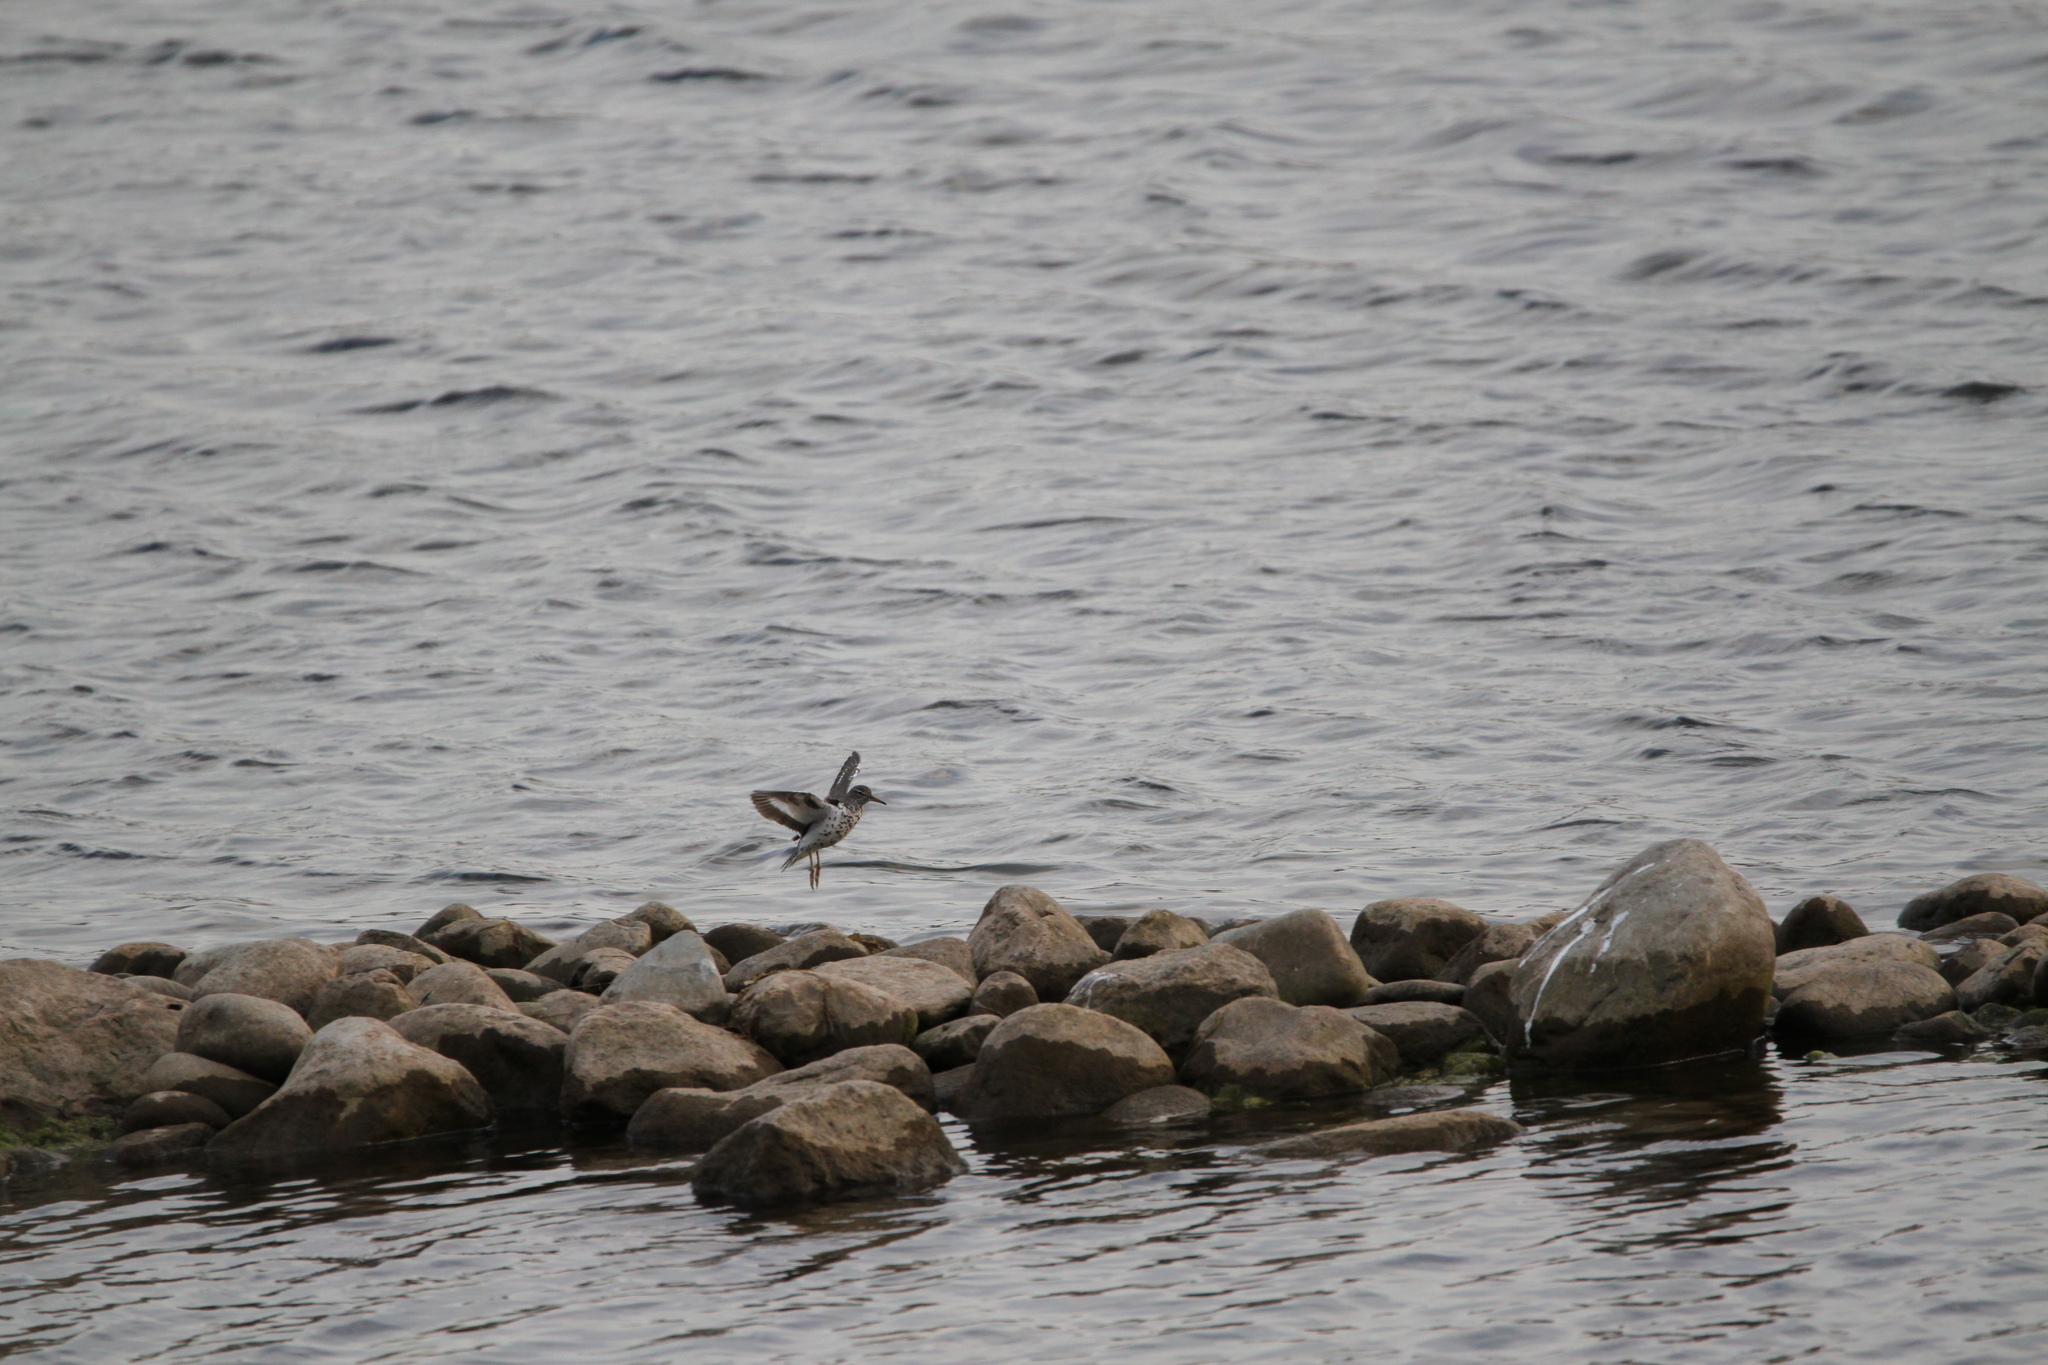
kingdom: Animalia
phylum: Chordata
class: Aves
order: Charadriiformes
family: Scolopacidae
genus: Actitis
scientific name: Actitis macularius
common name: Spotted sandpiper
